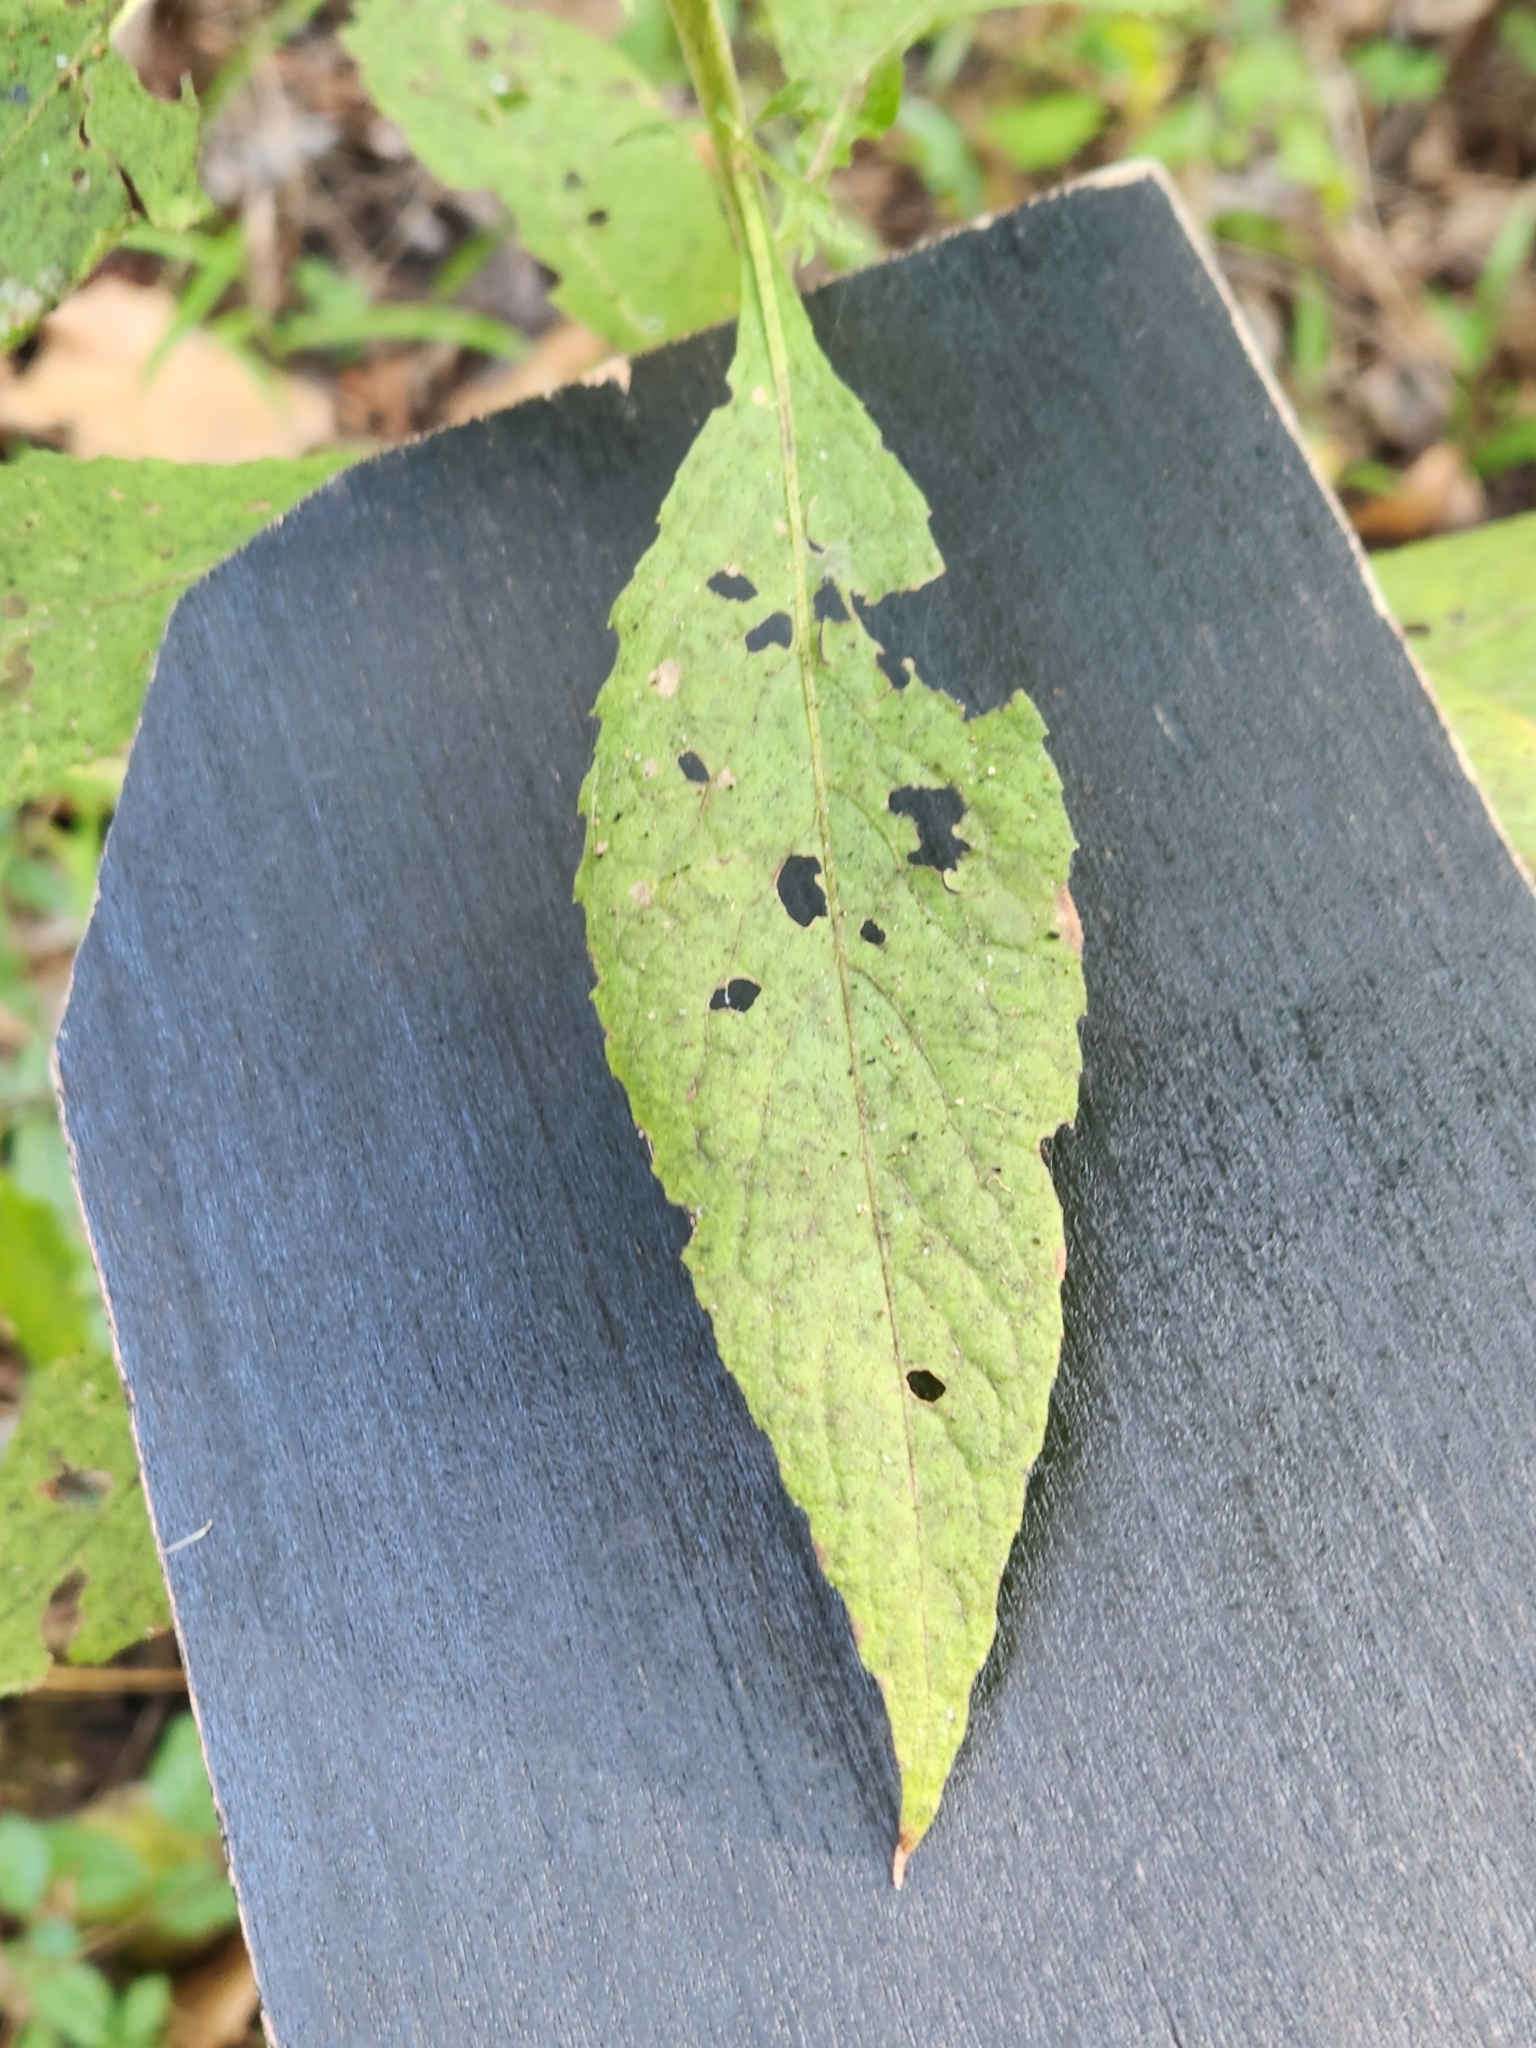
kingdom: Plantae
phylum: Tracheophyta
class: Magnoliopsida
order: Asterales
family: Asteraceae
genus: Pluchea
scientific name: Pluchea camphorata
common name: Camphor pluchea
